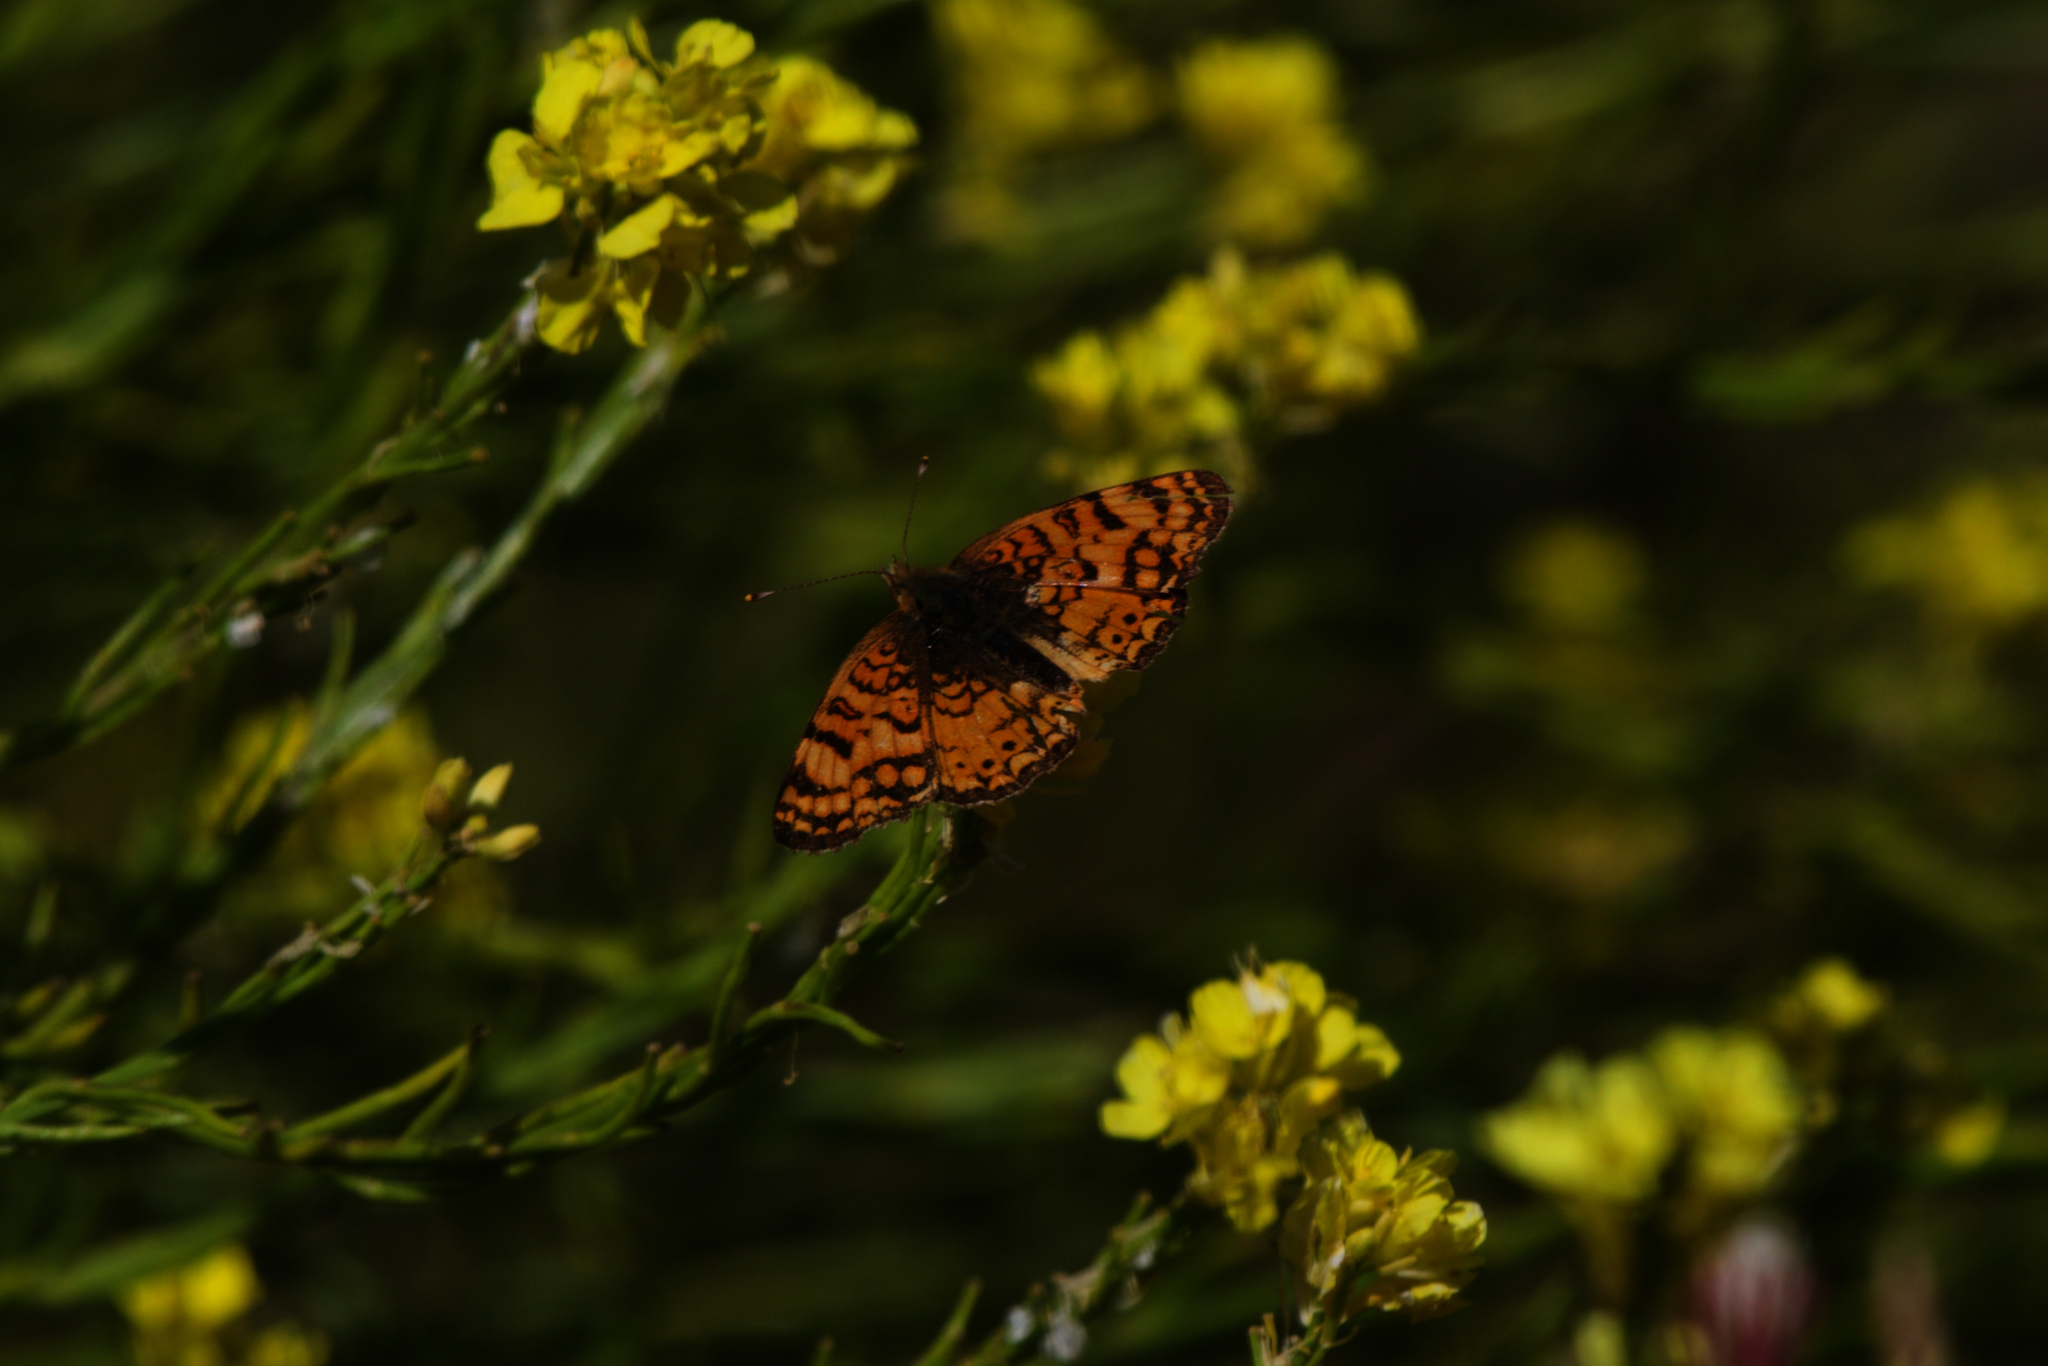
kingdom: Animalia
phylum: Arthropoda
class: Insecta
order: Lepidoptera
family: Nymphalidae
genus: Eresia
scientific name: Eresia aveyrona
